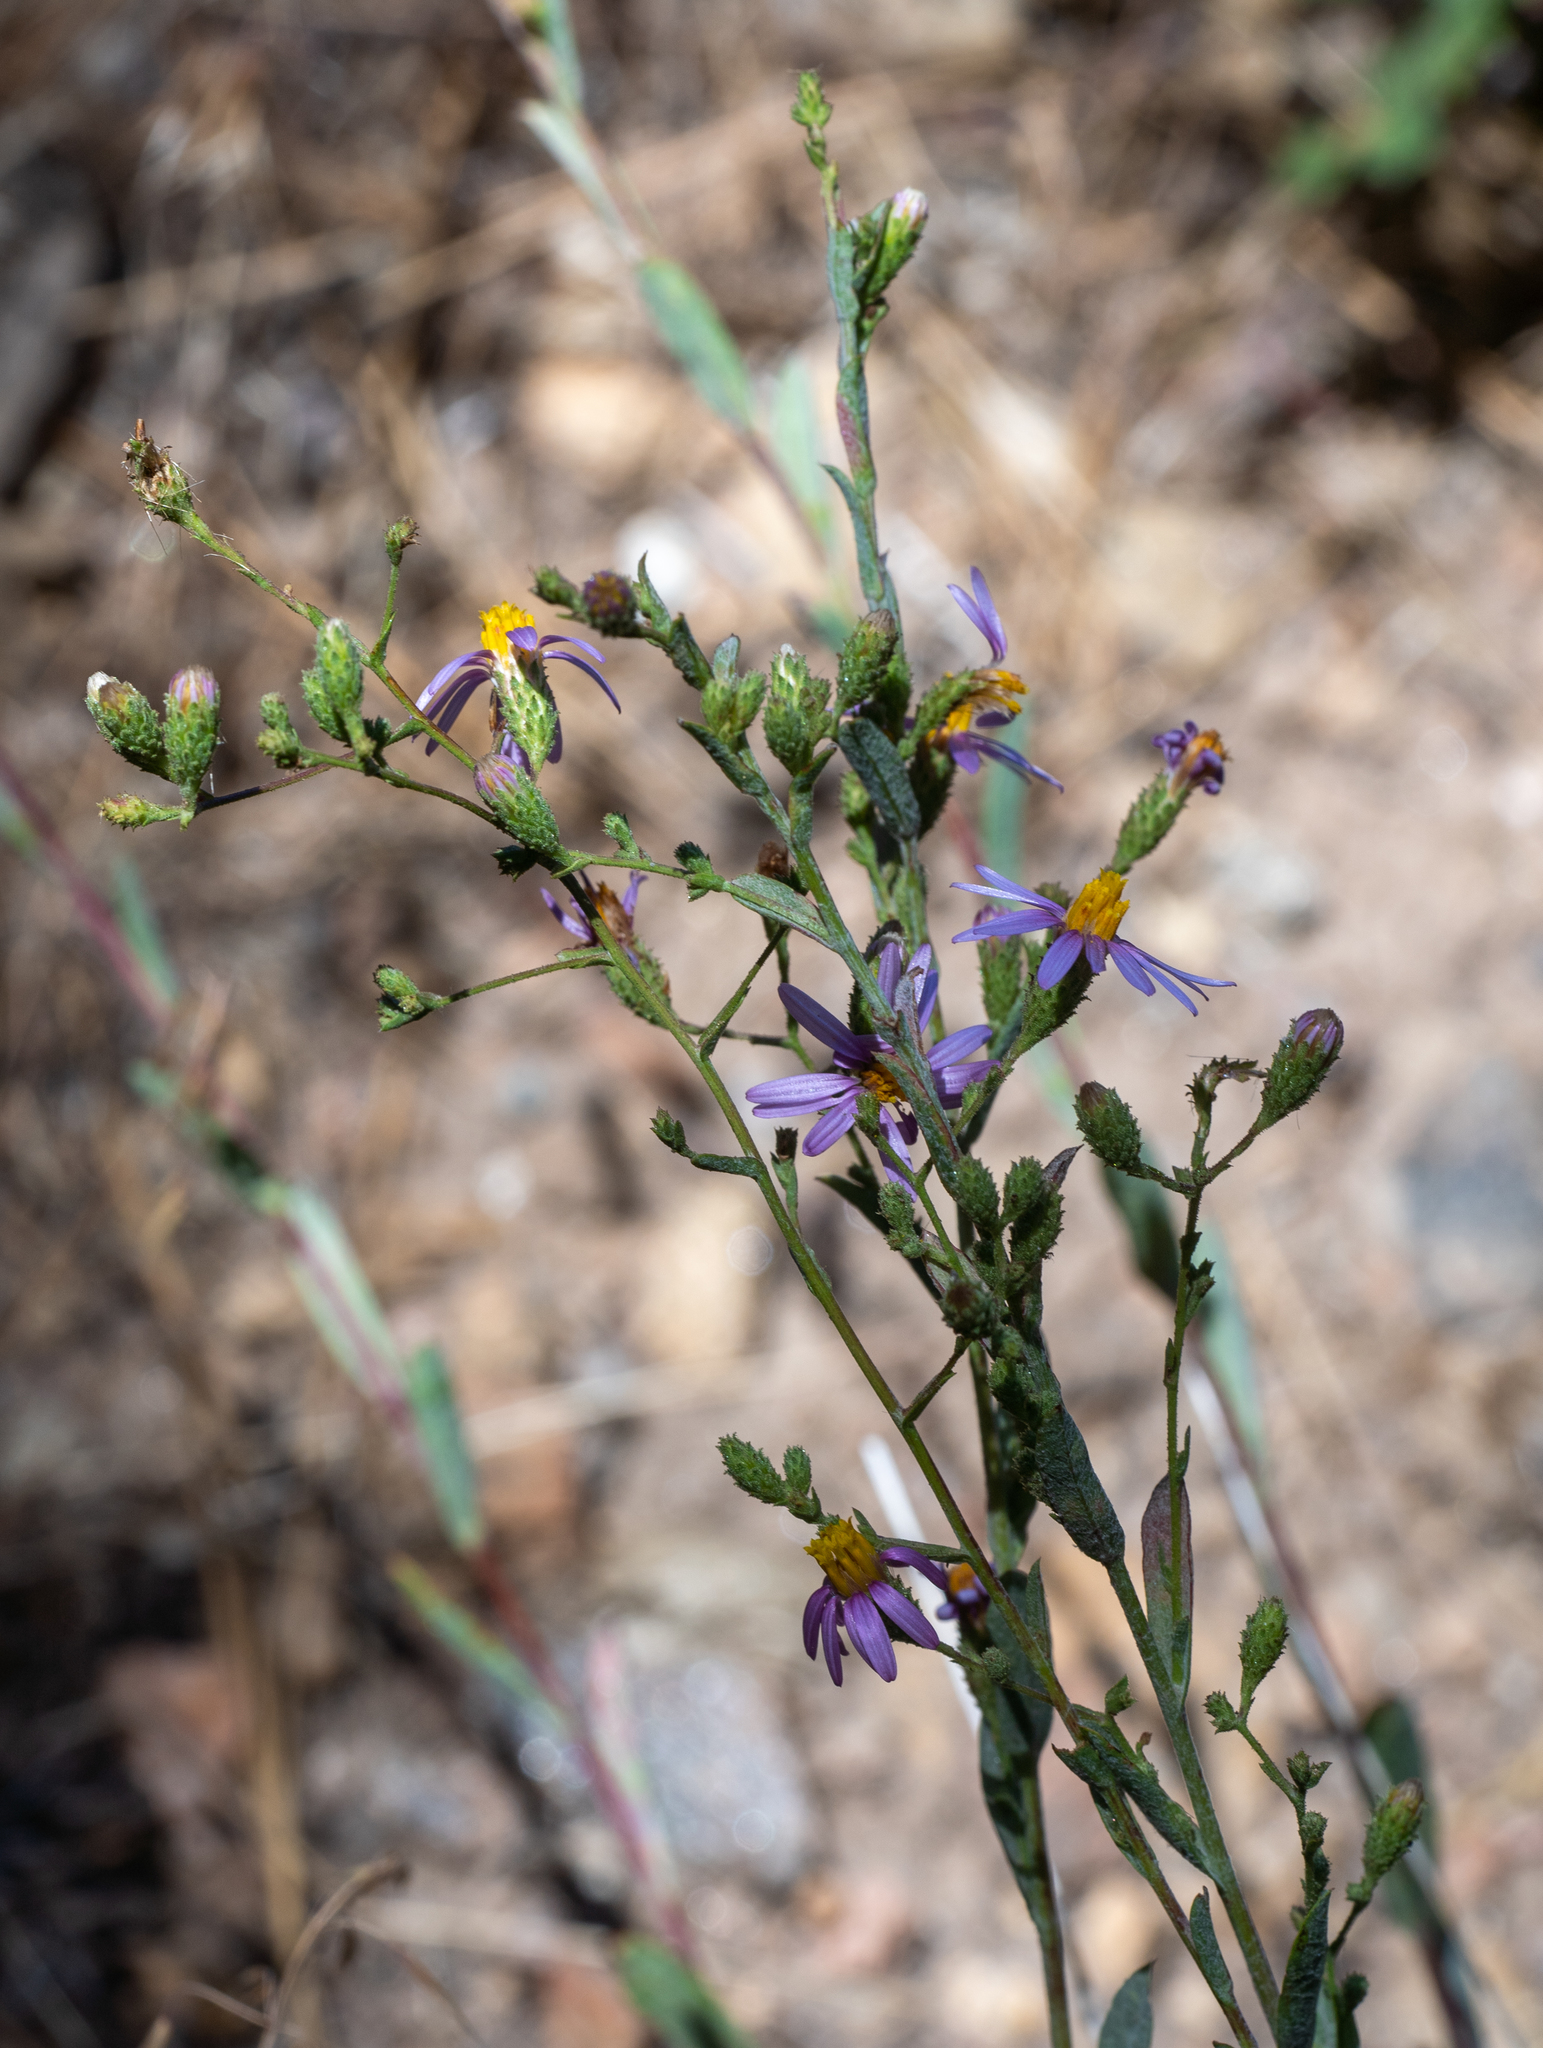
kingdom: Plantae
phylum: Tracheophyta
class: Magnoliopsida
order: Asterales
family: Asteraceae
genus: Corethrogyne
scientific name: Corethrogyne filaginifolia
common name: Sand-aster
